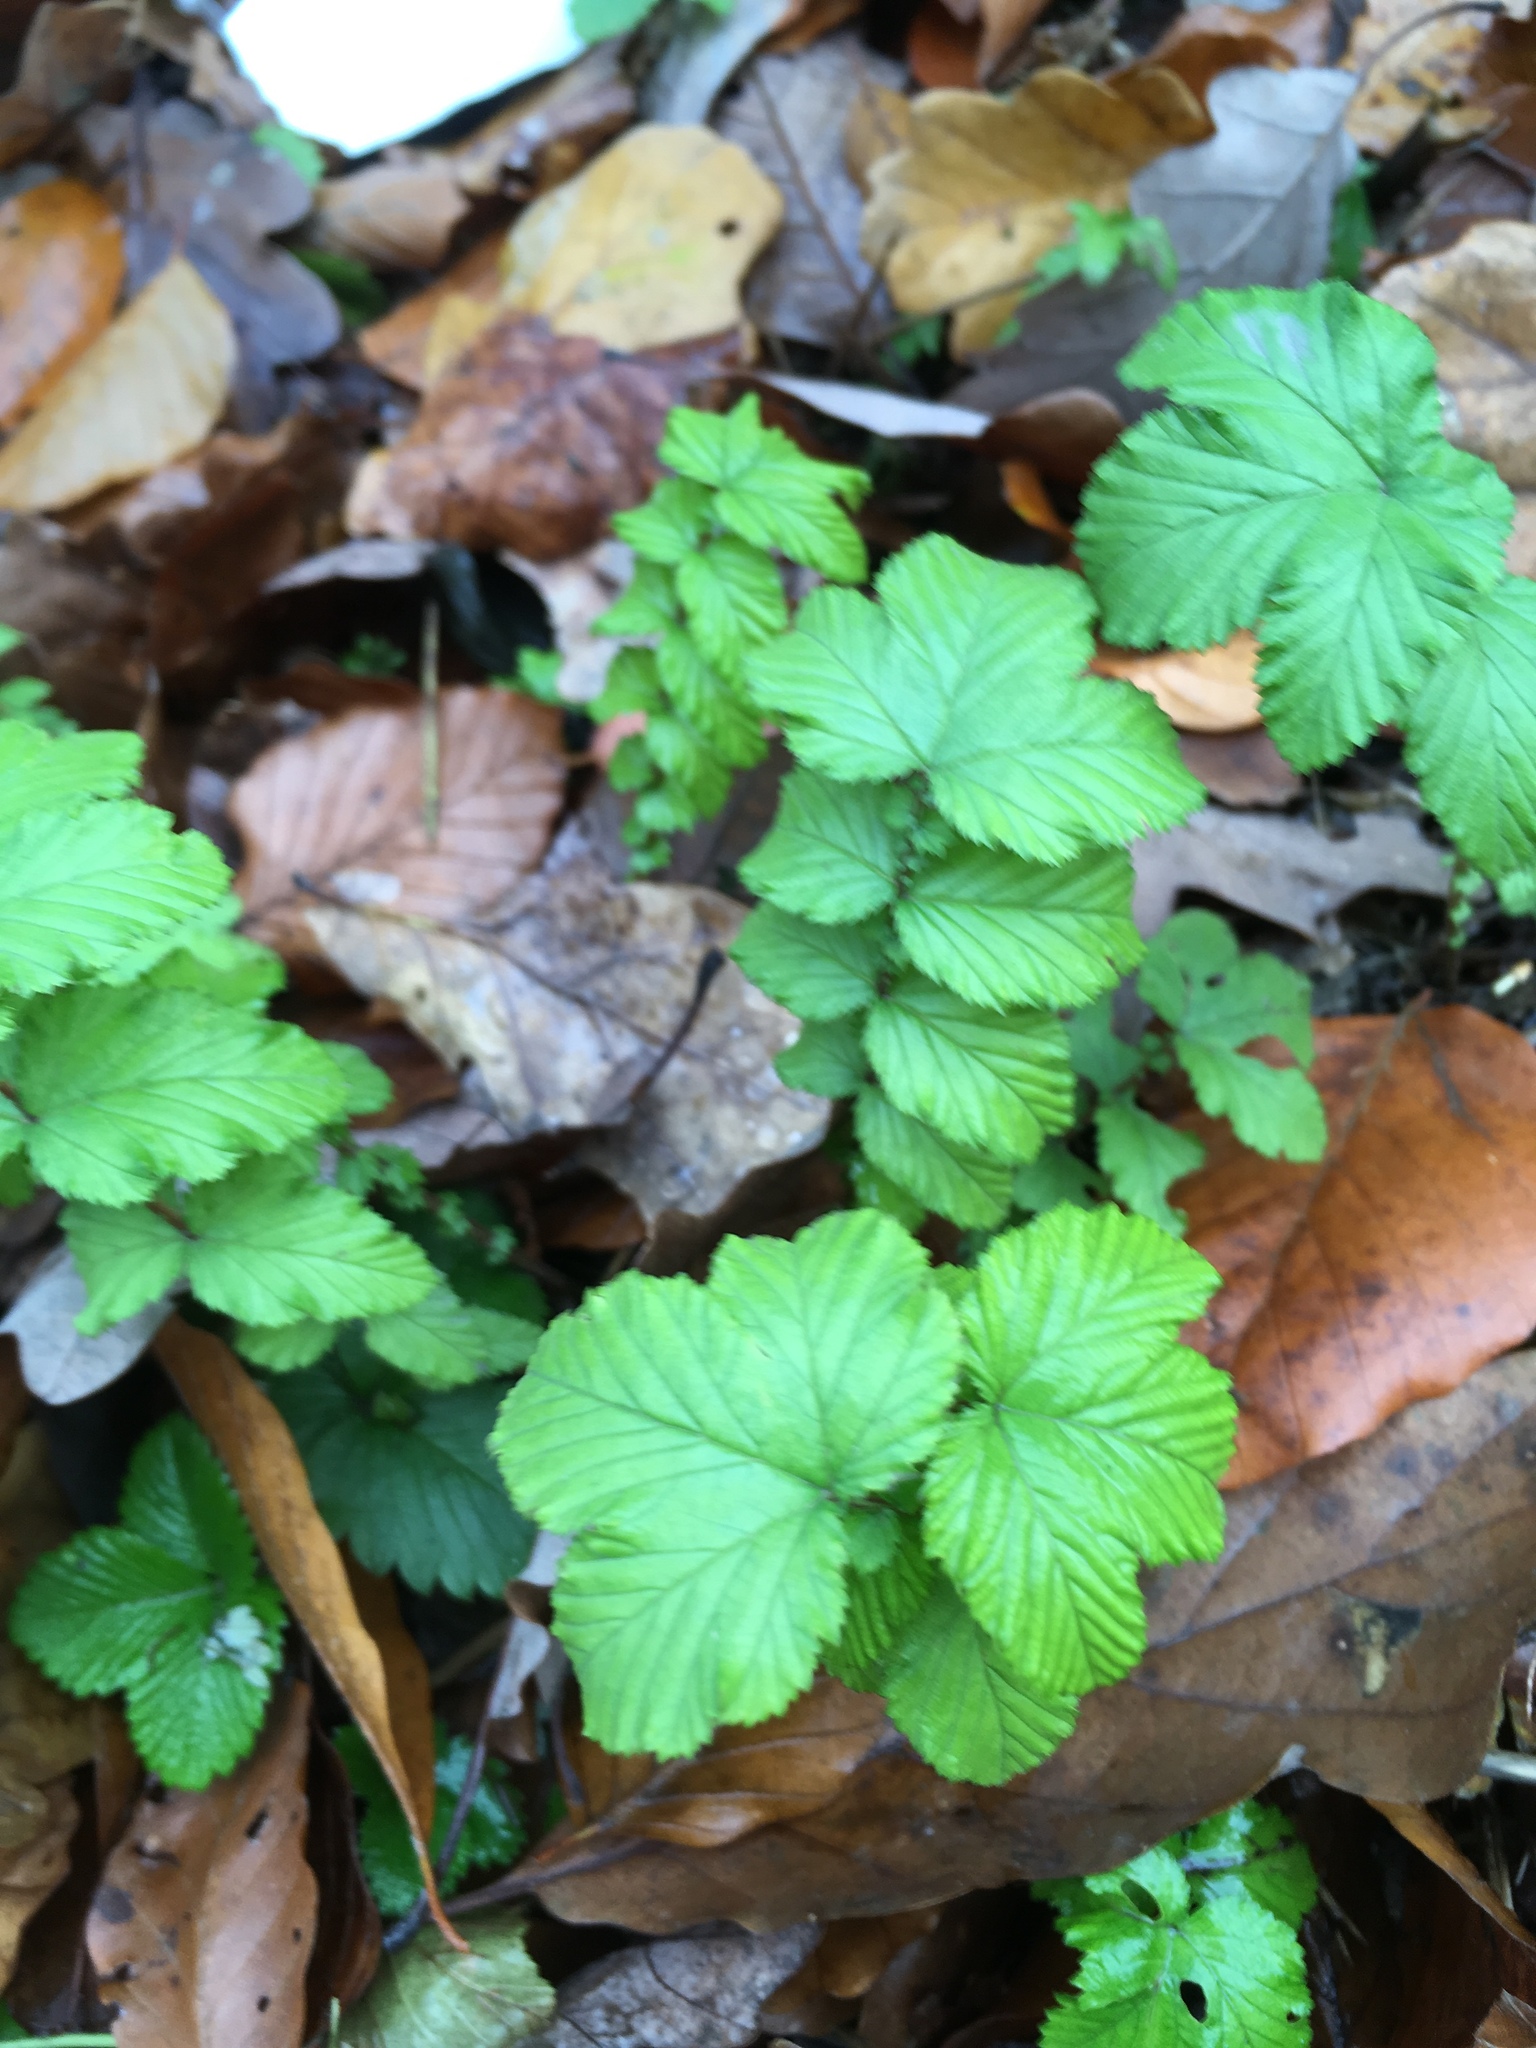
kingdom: Plantae
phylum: Tracheophyta
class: Magnoliopsida
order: Rosales
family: Rosaceae
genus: Filipendula
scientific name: Filipendula ulmaria
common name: Meadowsweet
